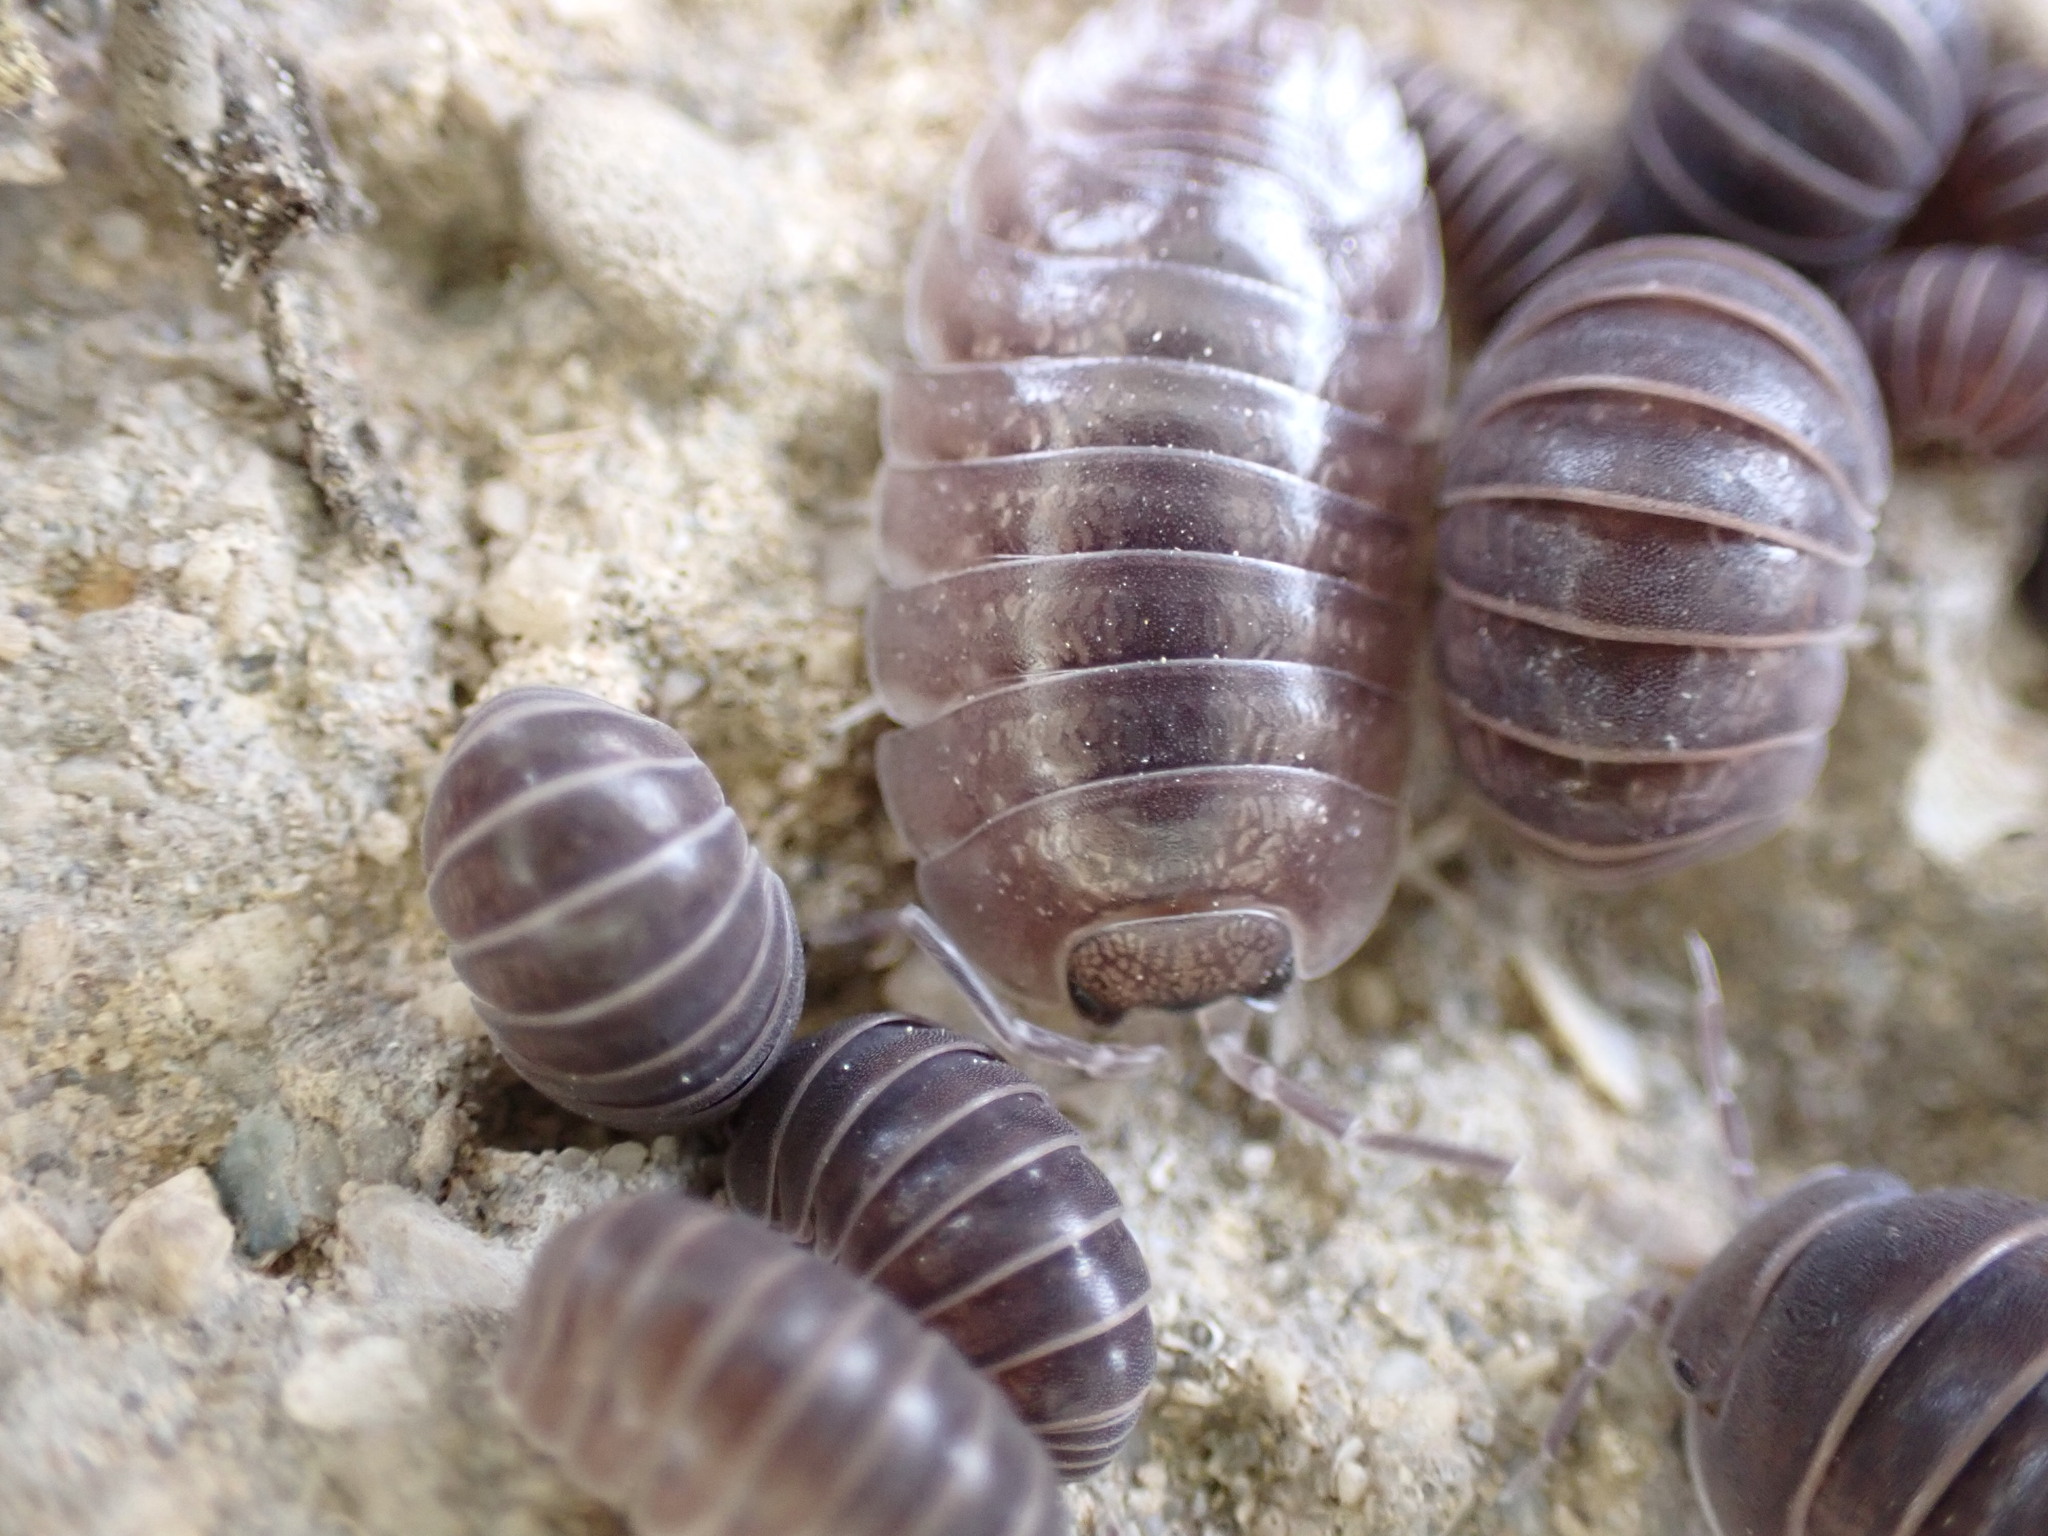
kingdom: Animalia
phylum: Arthropoda
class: Malacostraca
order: Isopoda
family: Porcellionidae
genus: Porcellio
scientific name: Porcellio laevis
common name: Swift woodlouse
